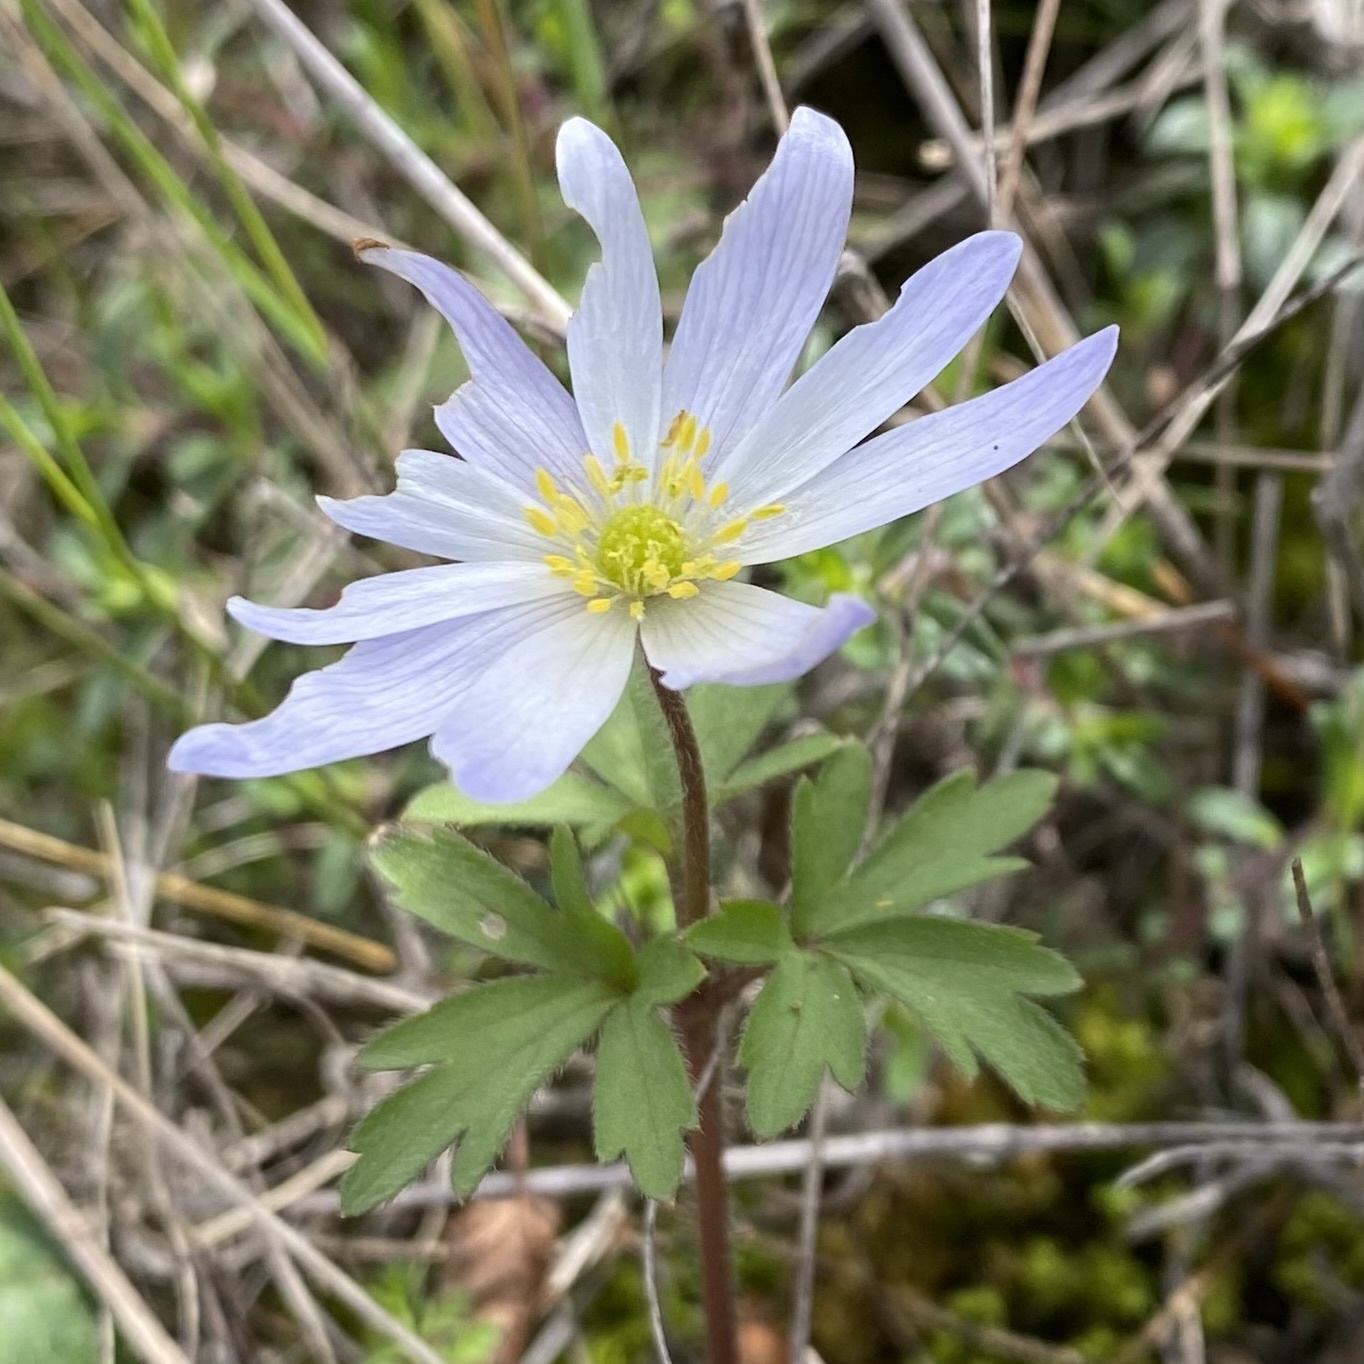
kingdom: Plantae
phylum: Tracheophyta
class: Magnoliopsida
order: Ranunculales
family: Ranunculaceae
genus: Anemone
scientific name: Anemone blanda
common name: Balkan anemone
